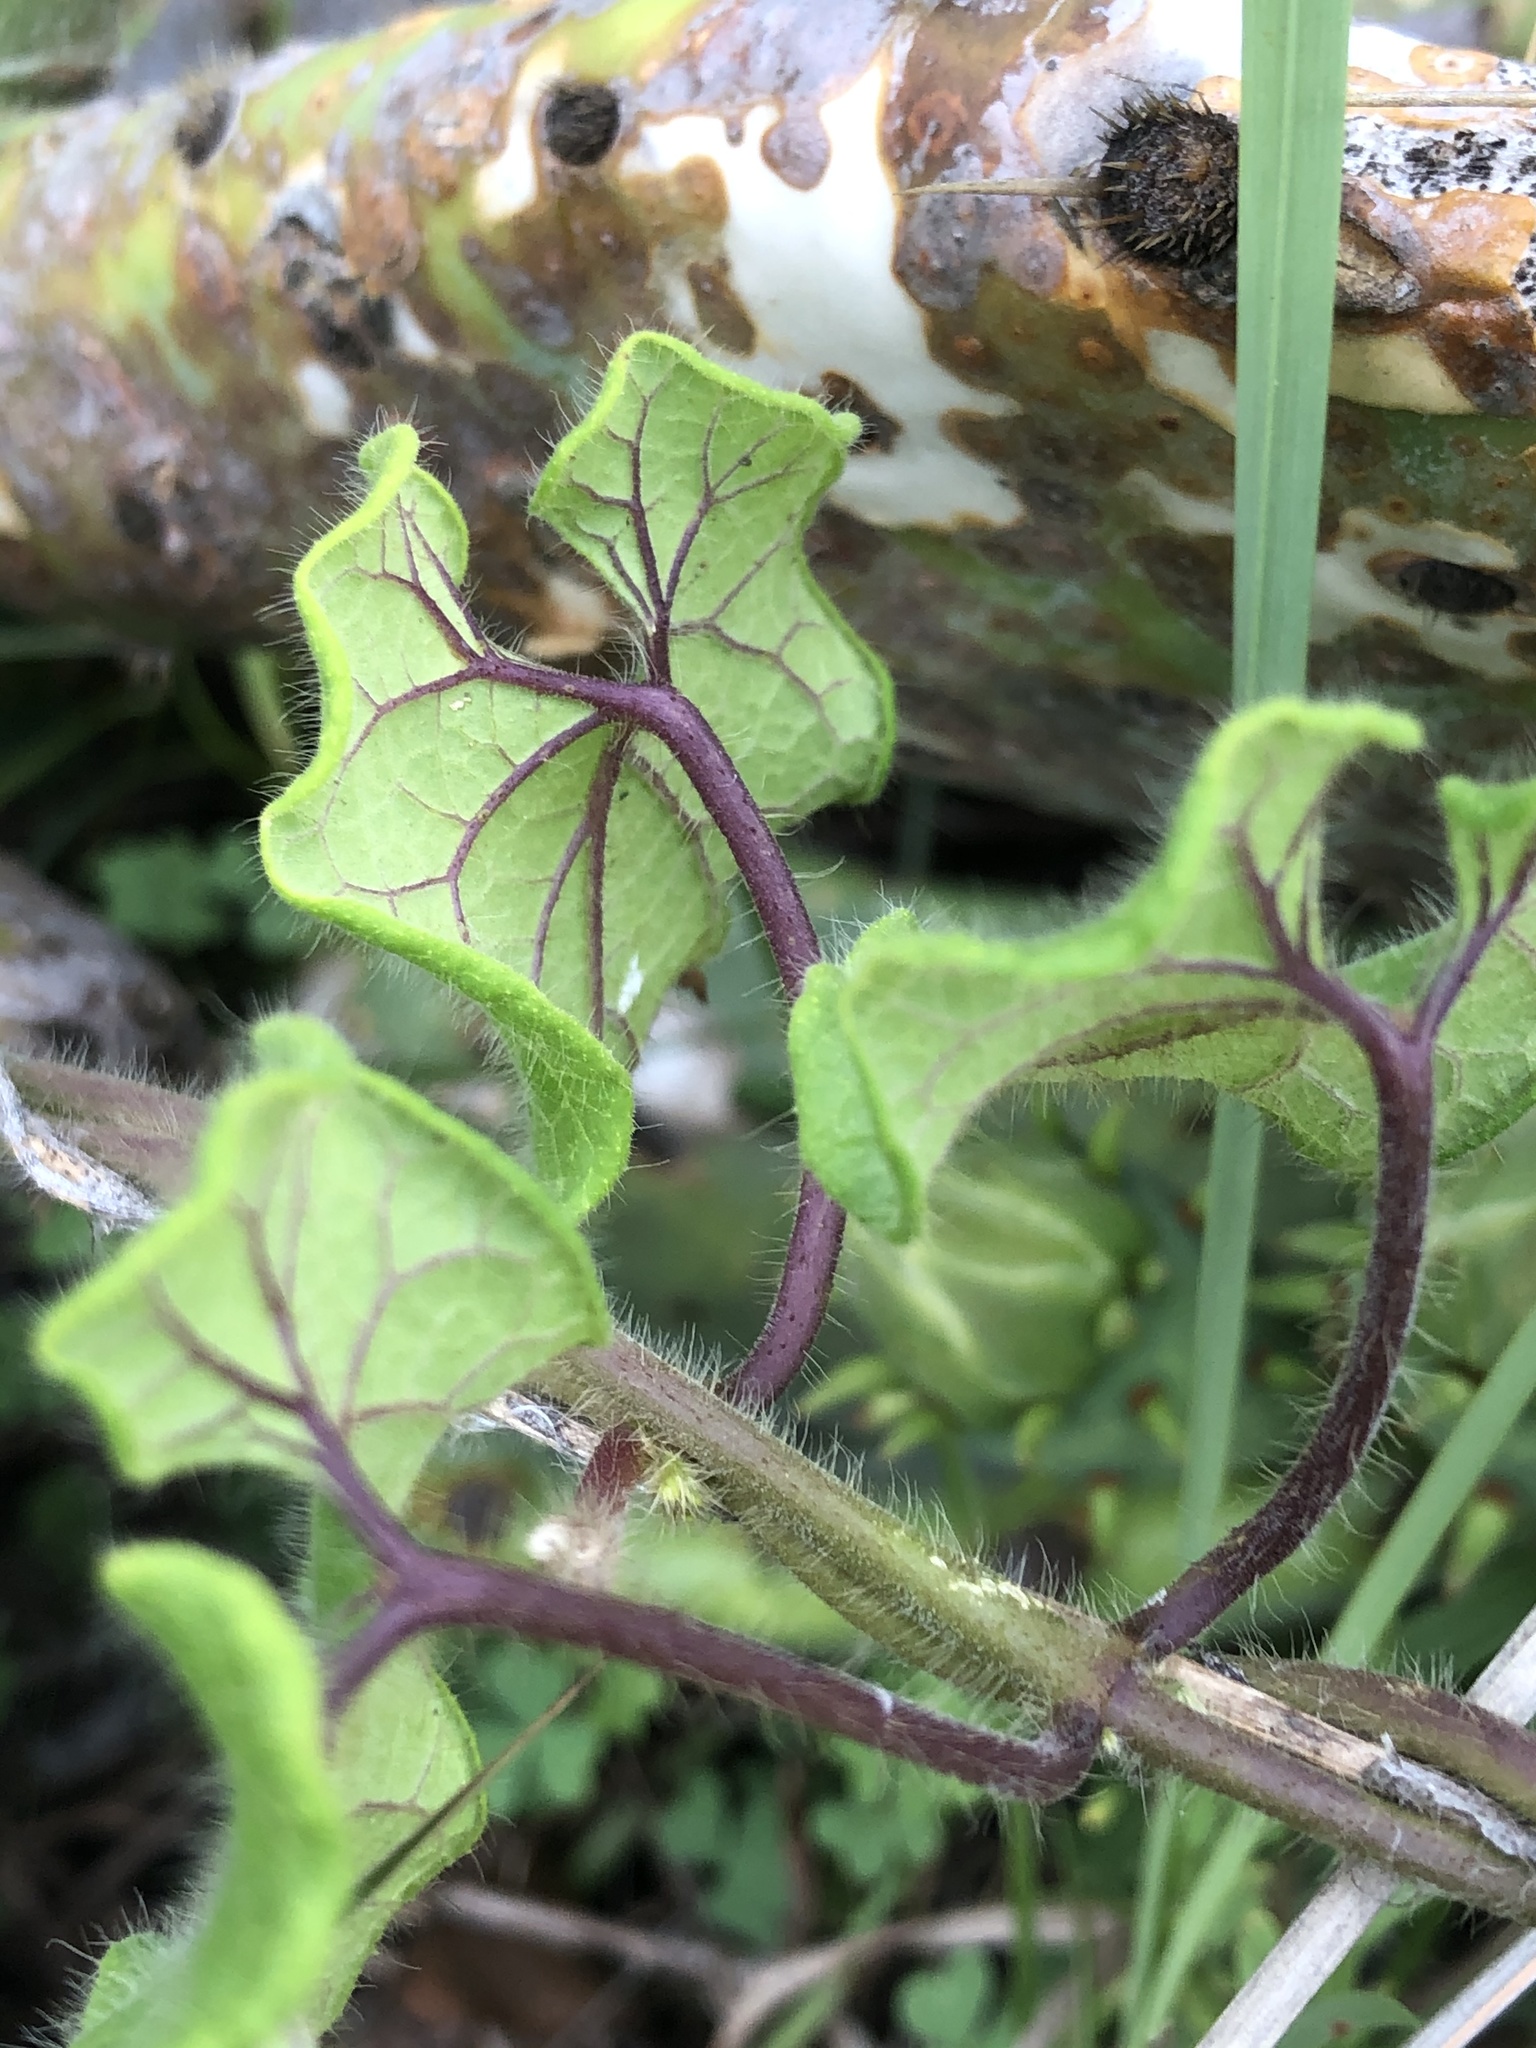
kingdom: Plantae
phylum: Tracheophyta
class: Magnoliopsida
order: Gentianales
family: Apocynaceae
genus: Dictyanthus
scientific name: Dictyanthus reticulatus
